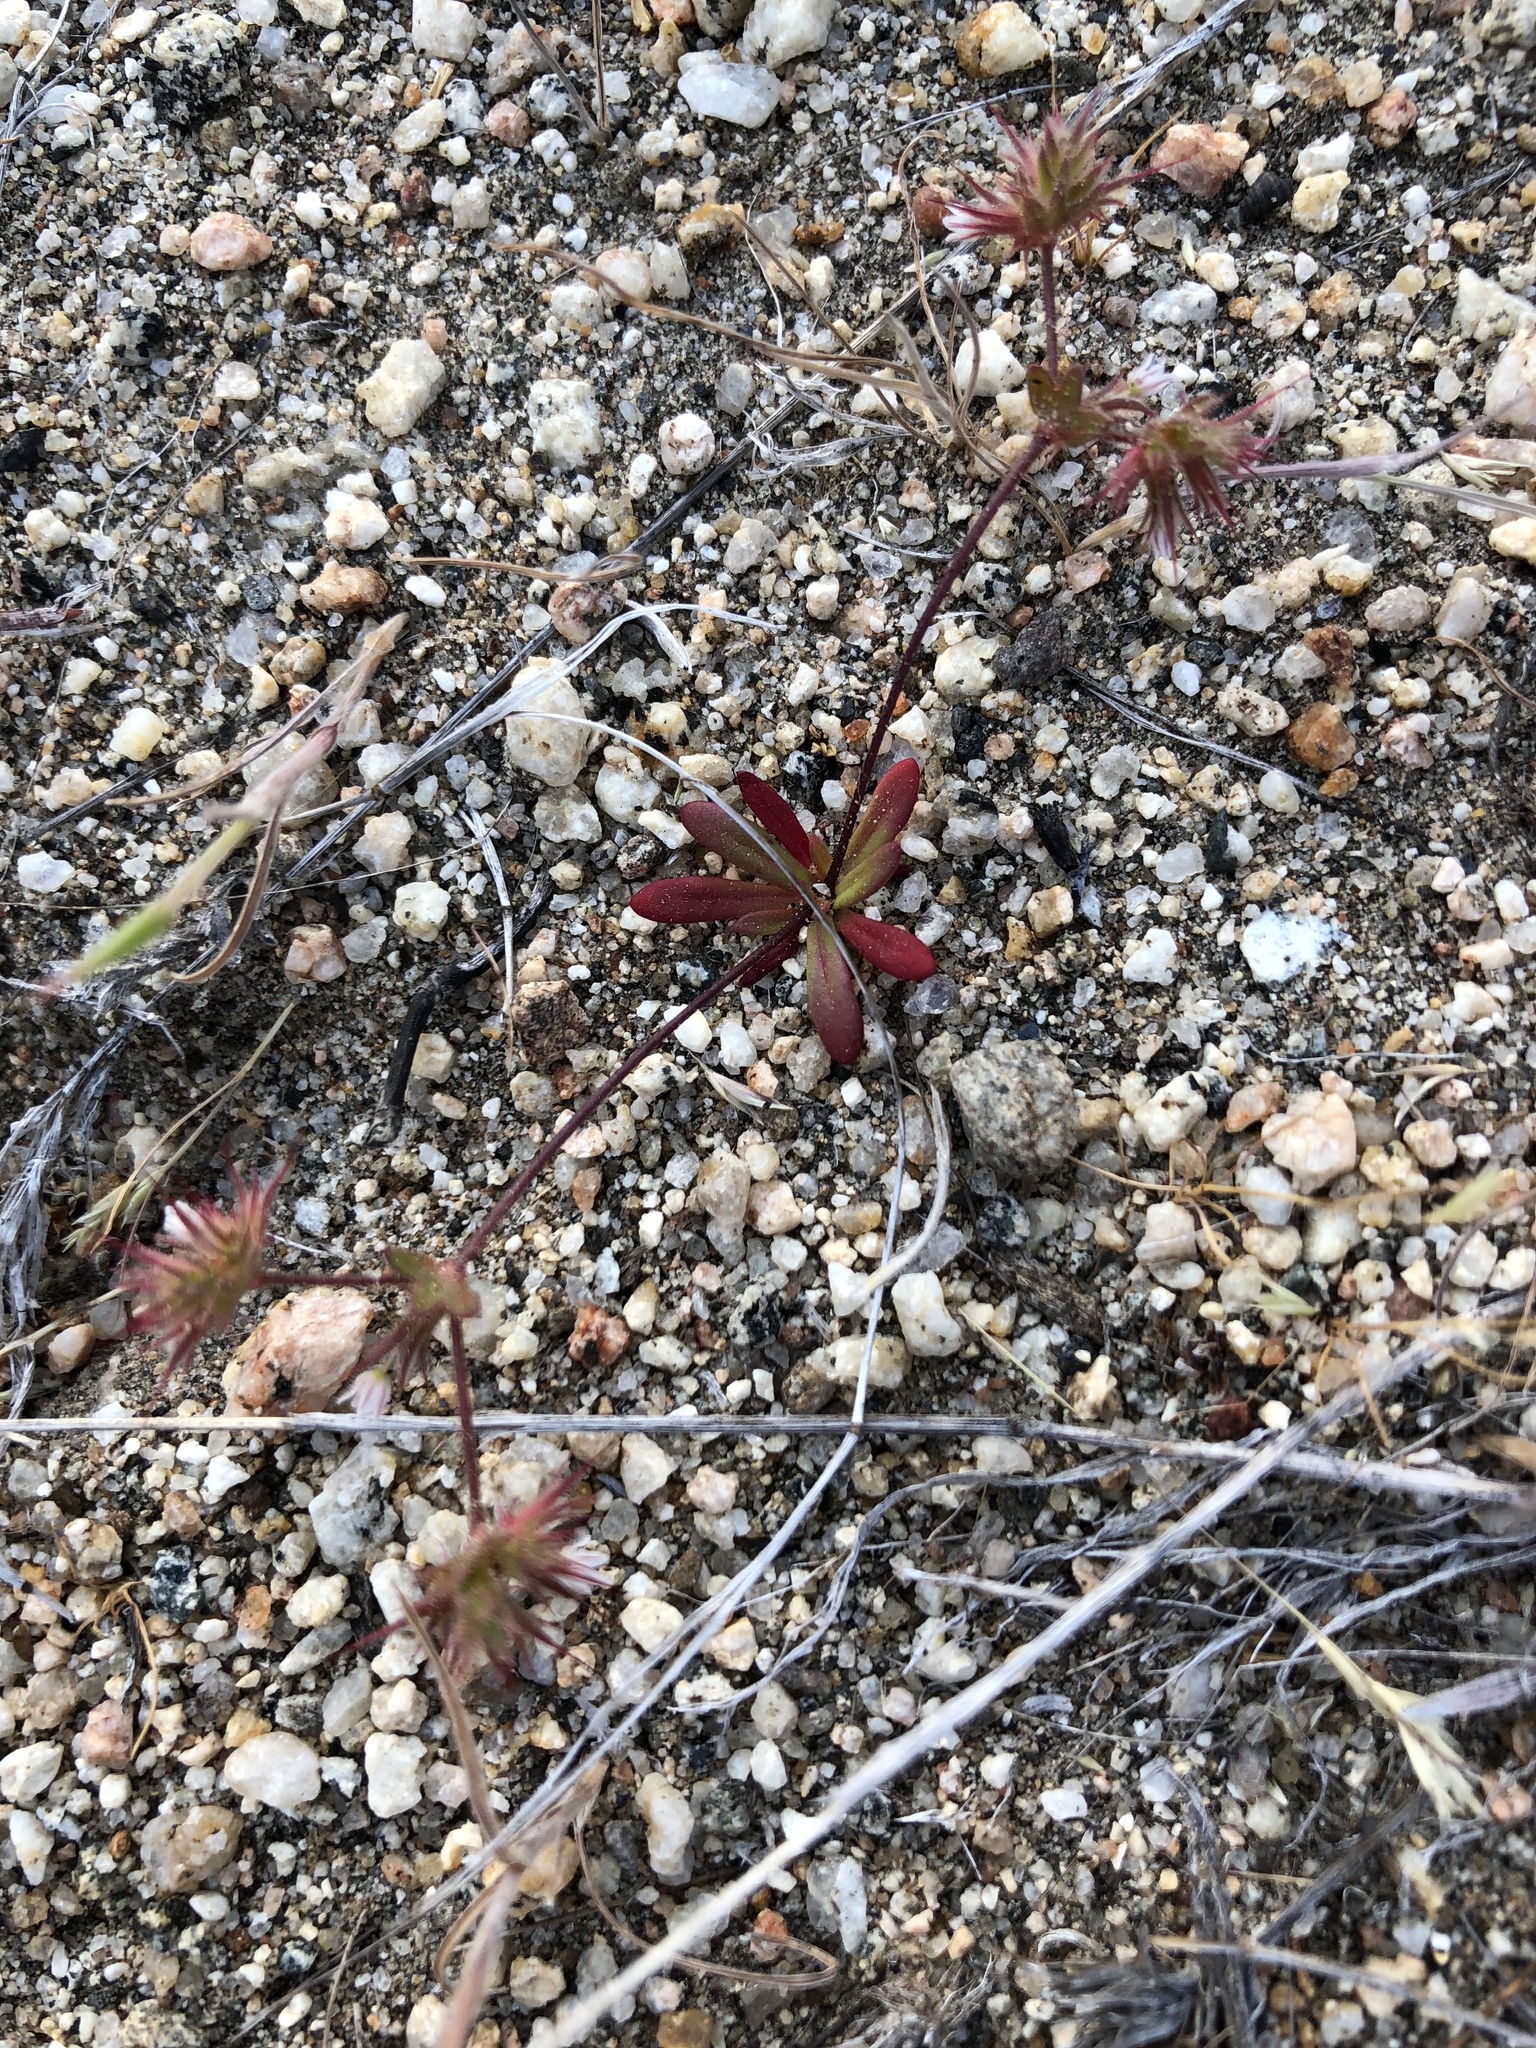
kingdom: Plantae
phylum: Tracheophyta
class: Magnoliopsida
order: Caryophyllales
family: Polygonaceae
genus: Dodecahema
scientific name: Dodecahema leptoceras
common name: Slender-horn spinyherb
